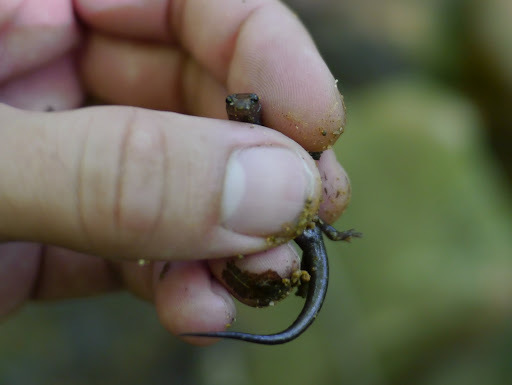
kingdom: Animalia
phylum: Chordata
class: Amphibia
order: Caudata
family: Plethodontidae
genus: Desmognathus
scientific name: Desmognathus ochrophaeus
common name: Allegheny mountain dusky salamander
